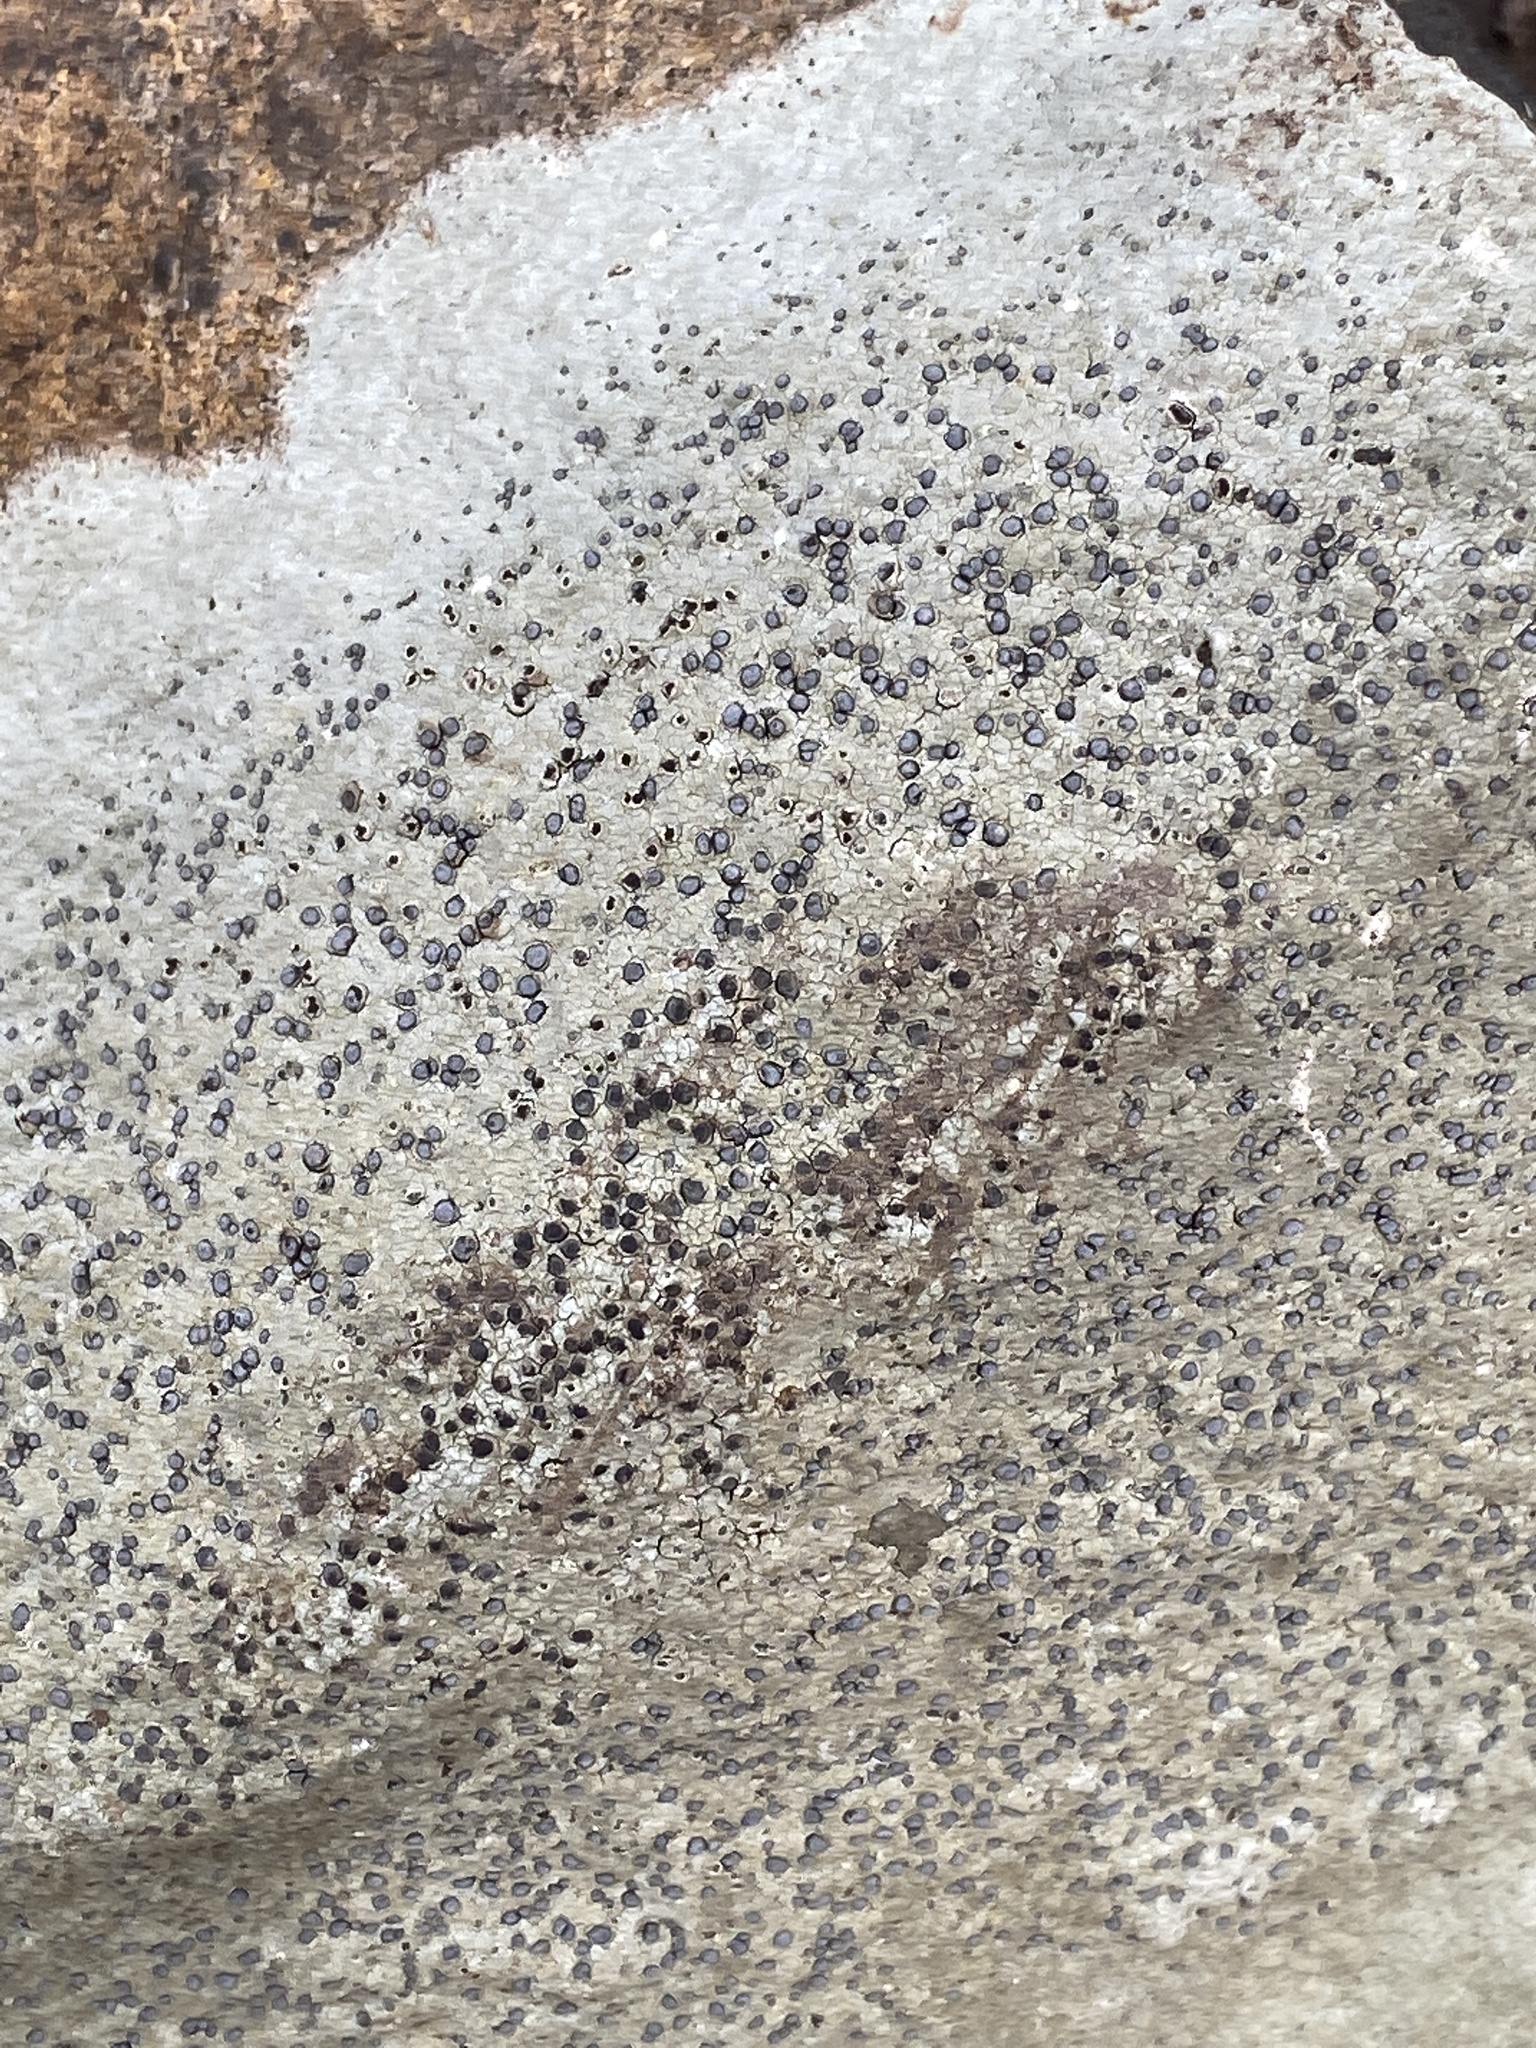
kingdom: Fungi
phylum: Ascomycota
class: Lecanoromycetes
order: Lecideales
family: Lecideaceae
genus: Porpidia
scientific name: Porpidia albocaerulescens
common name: Smokey-eyed boulder lichen
